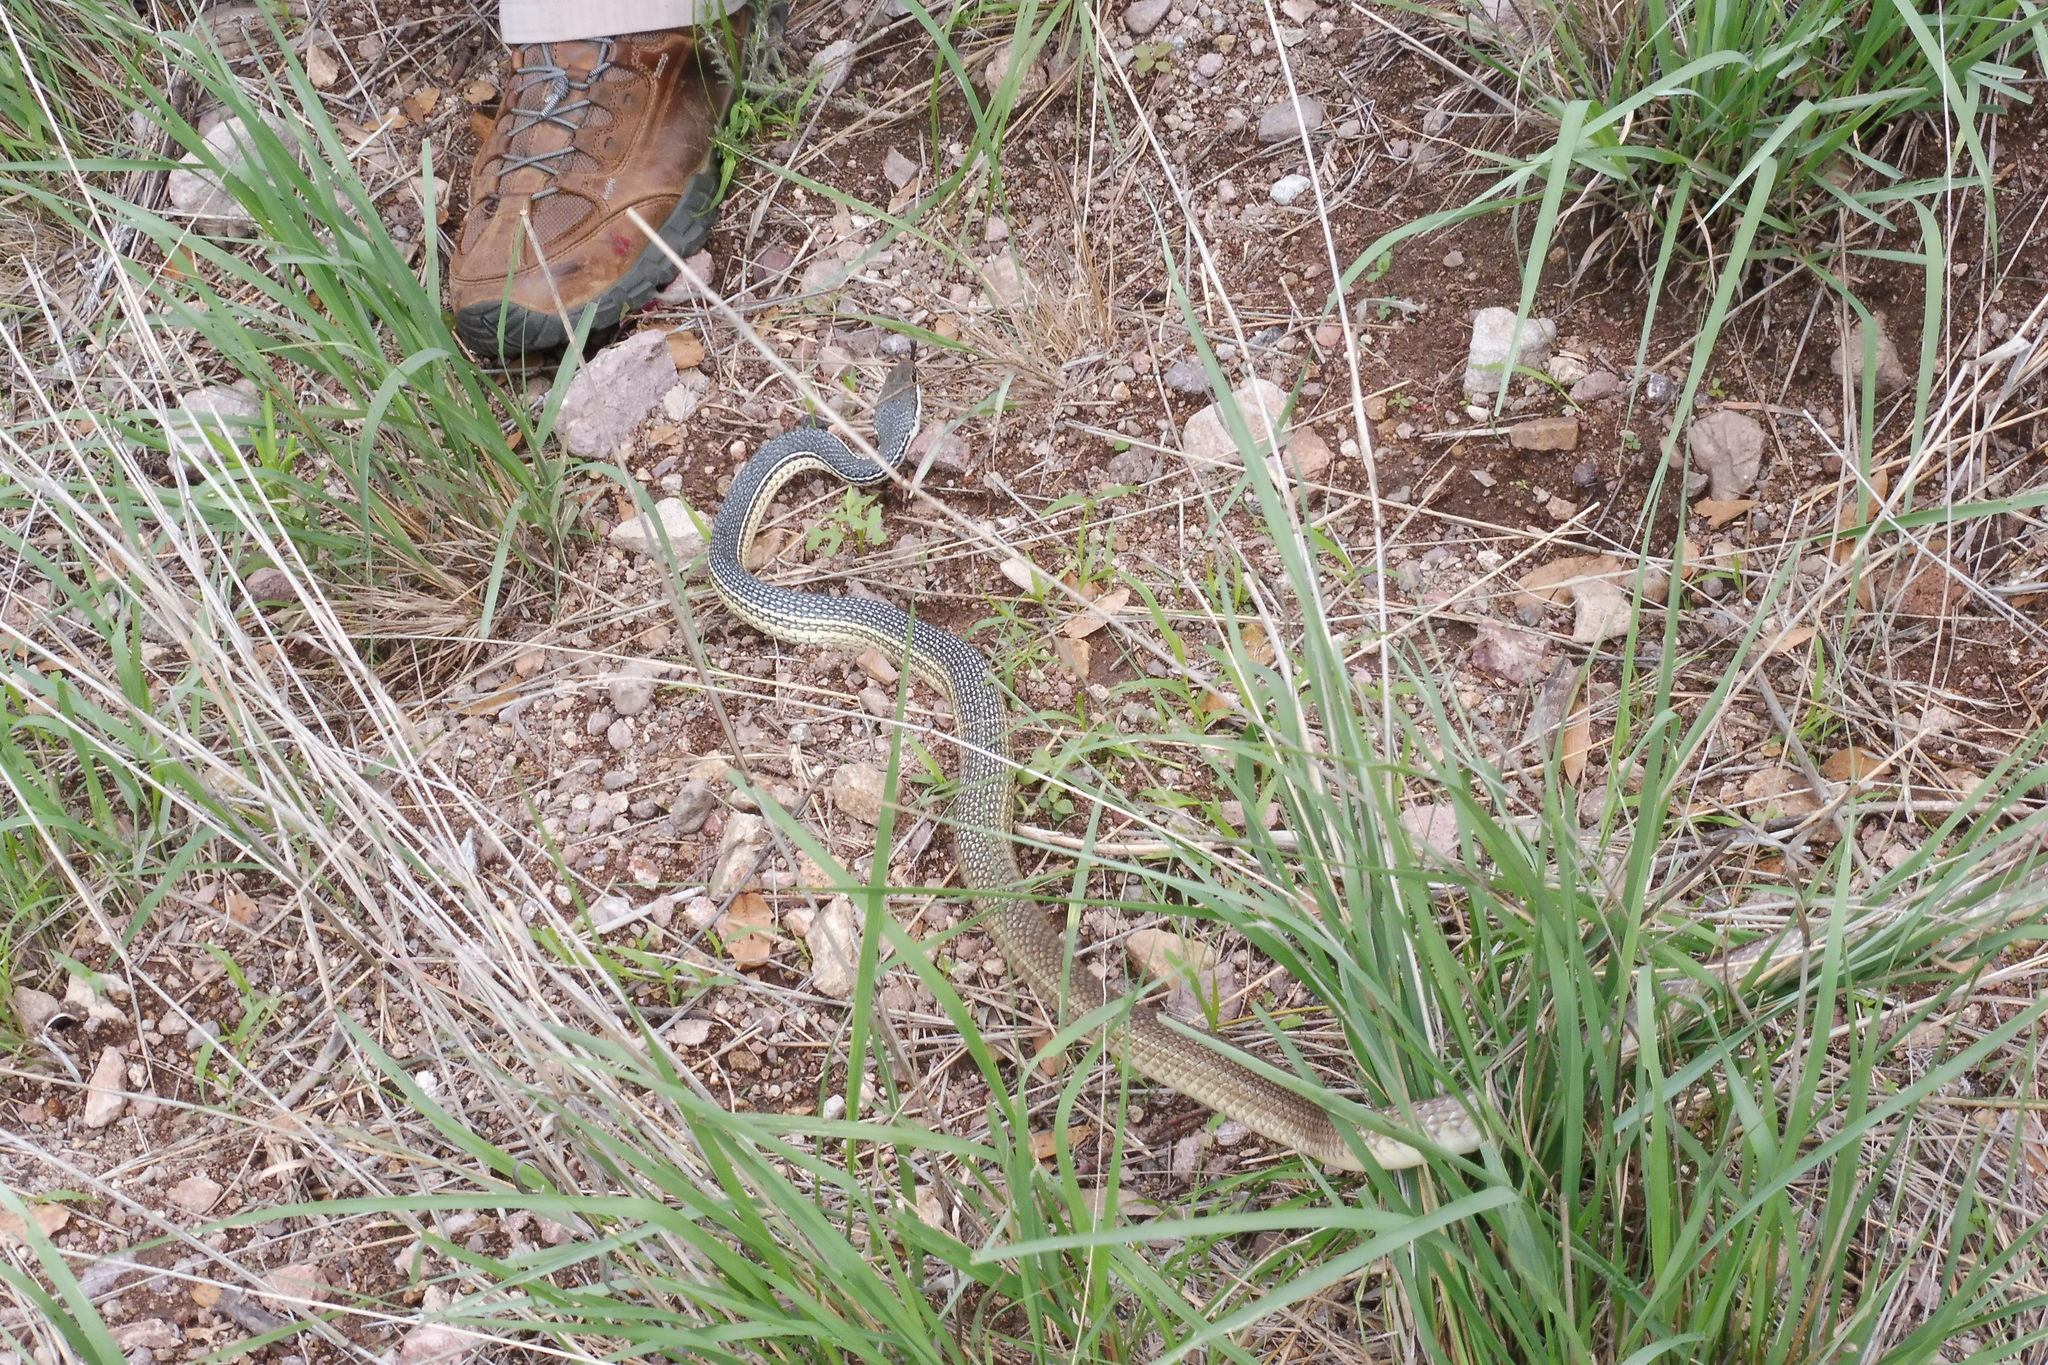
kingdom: Animalia
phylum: Chordata
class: Squamata
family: Colubridae
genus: Masticophis
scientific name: Masticophis bilineatus
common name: Sonoran whipsnake
